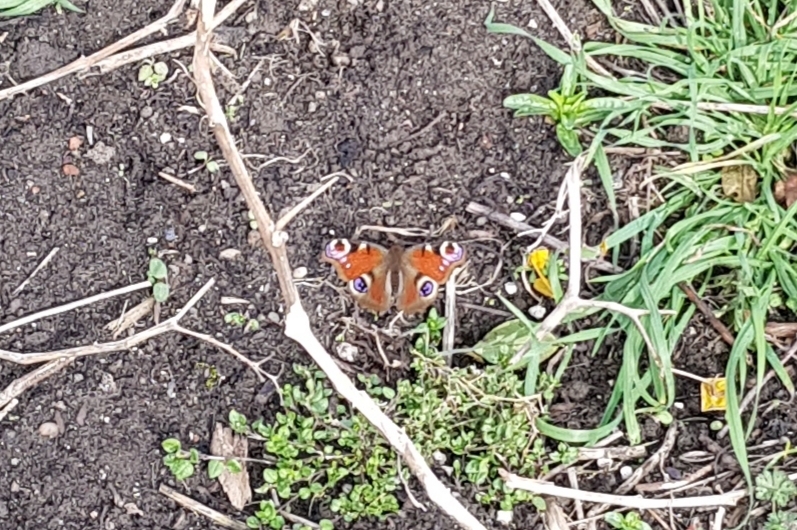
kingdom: Animalia
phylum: Arthropoda
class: Insecta
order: Lepidoptera
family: Nymphalidae
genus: Aglais
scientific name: Aglais io
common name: Peacock
